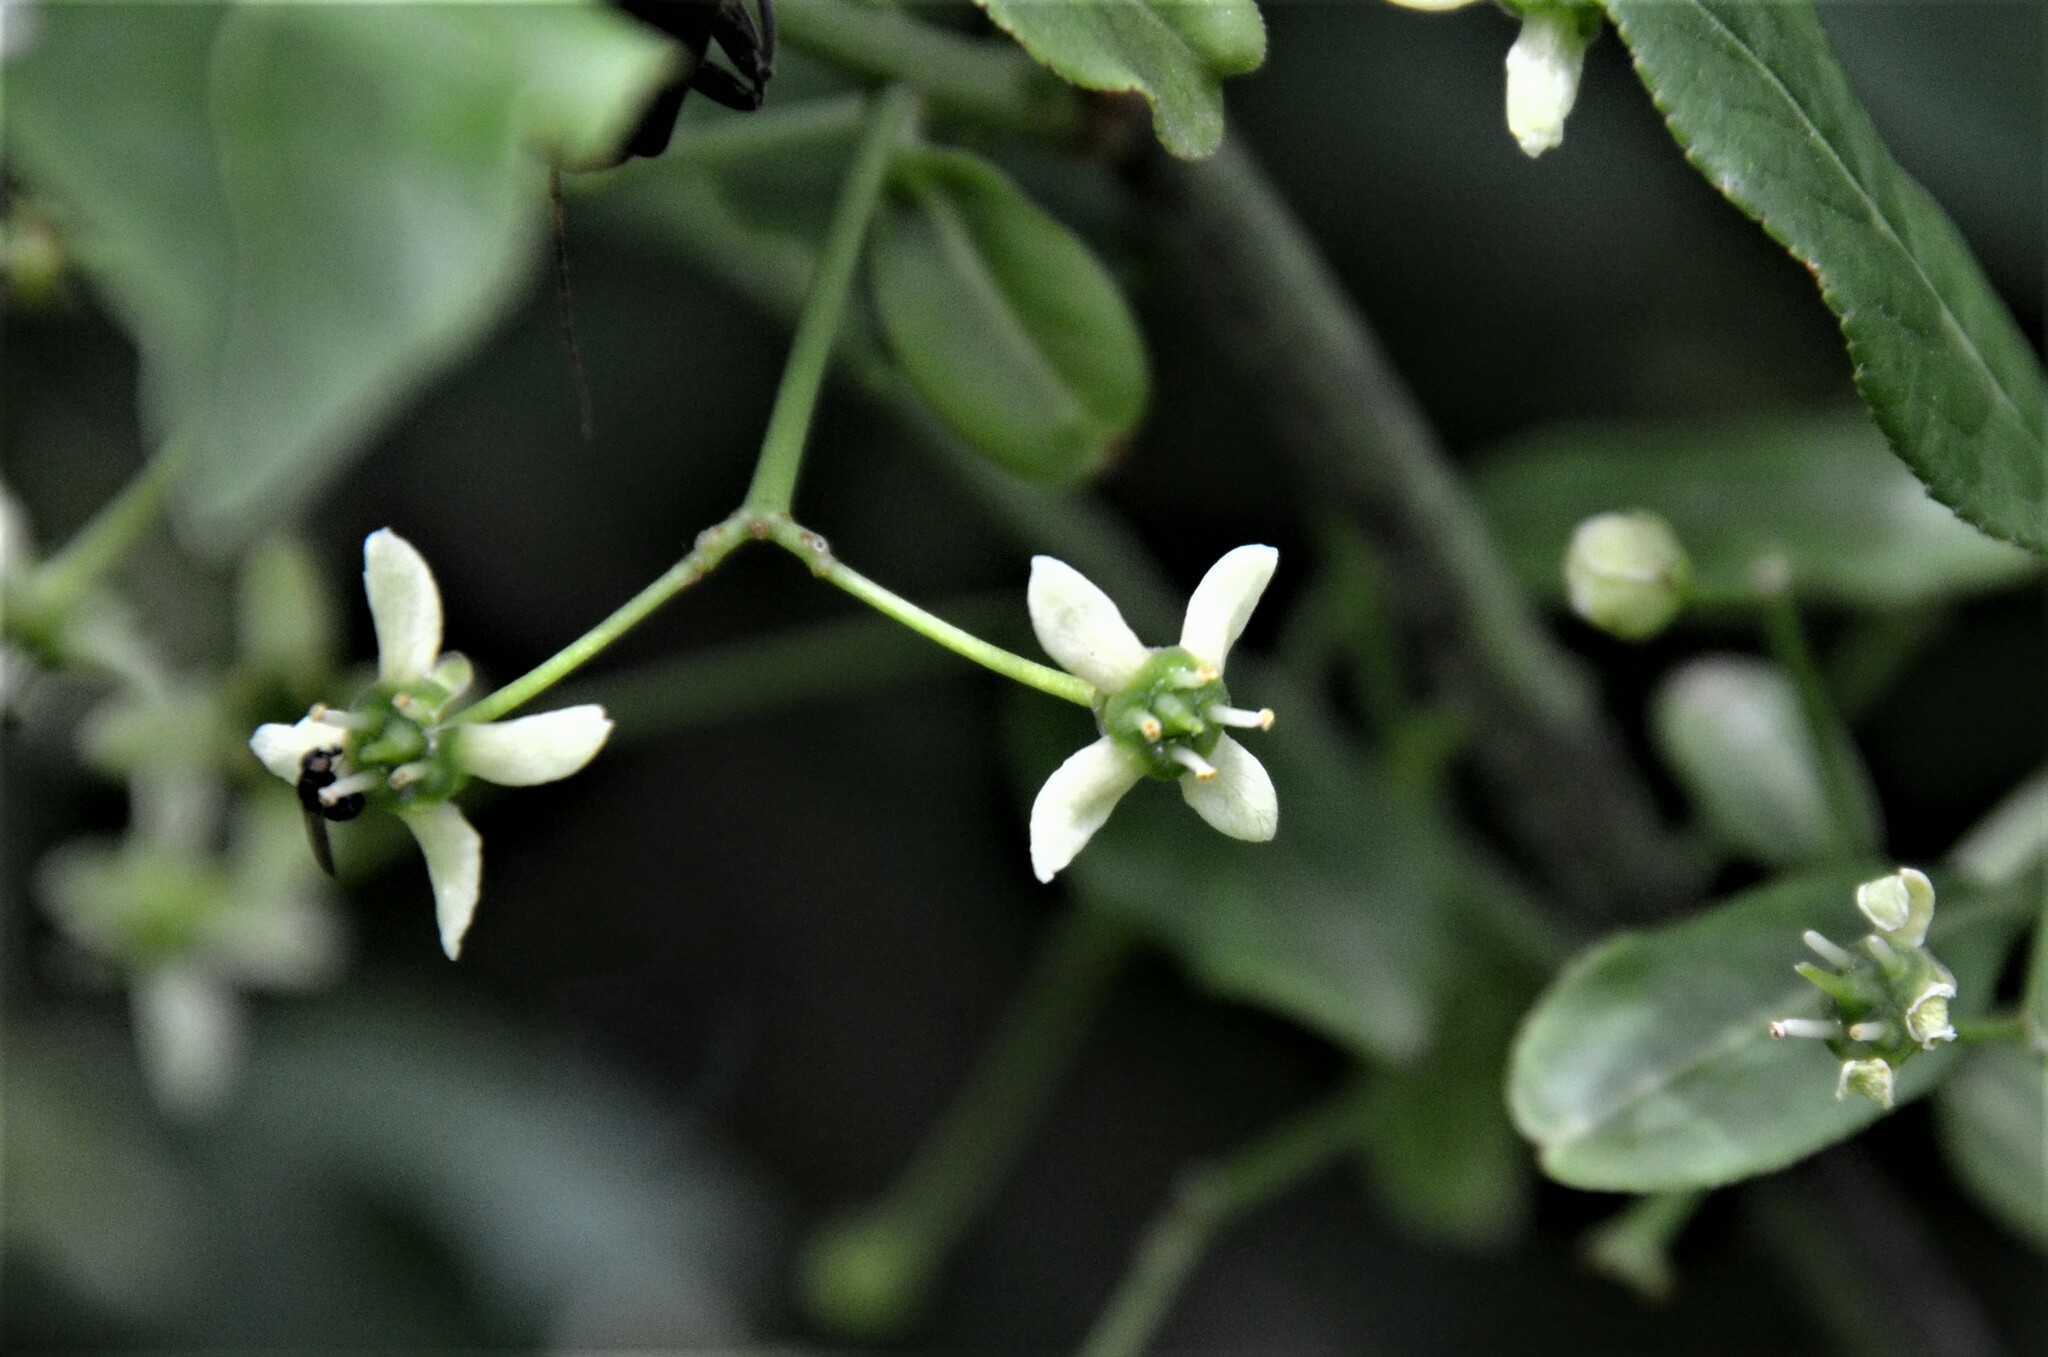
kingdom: Plantae
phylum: Tracheophyta
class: Magnoliopsida
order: Celastrales
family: Celastraceae
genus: Euonymus
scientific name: Euonymus europaeus
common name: Spindle
